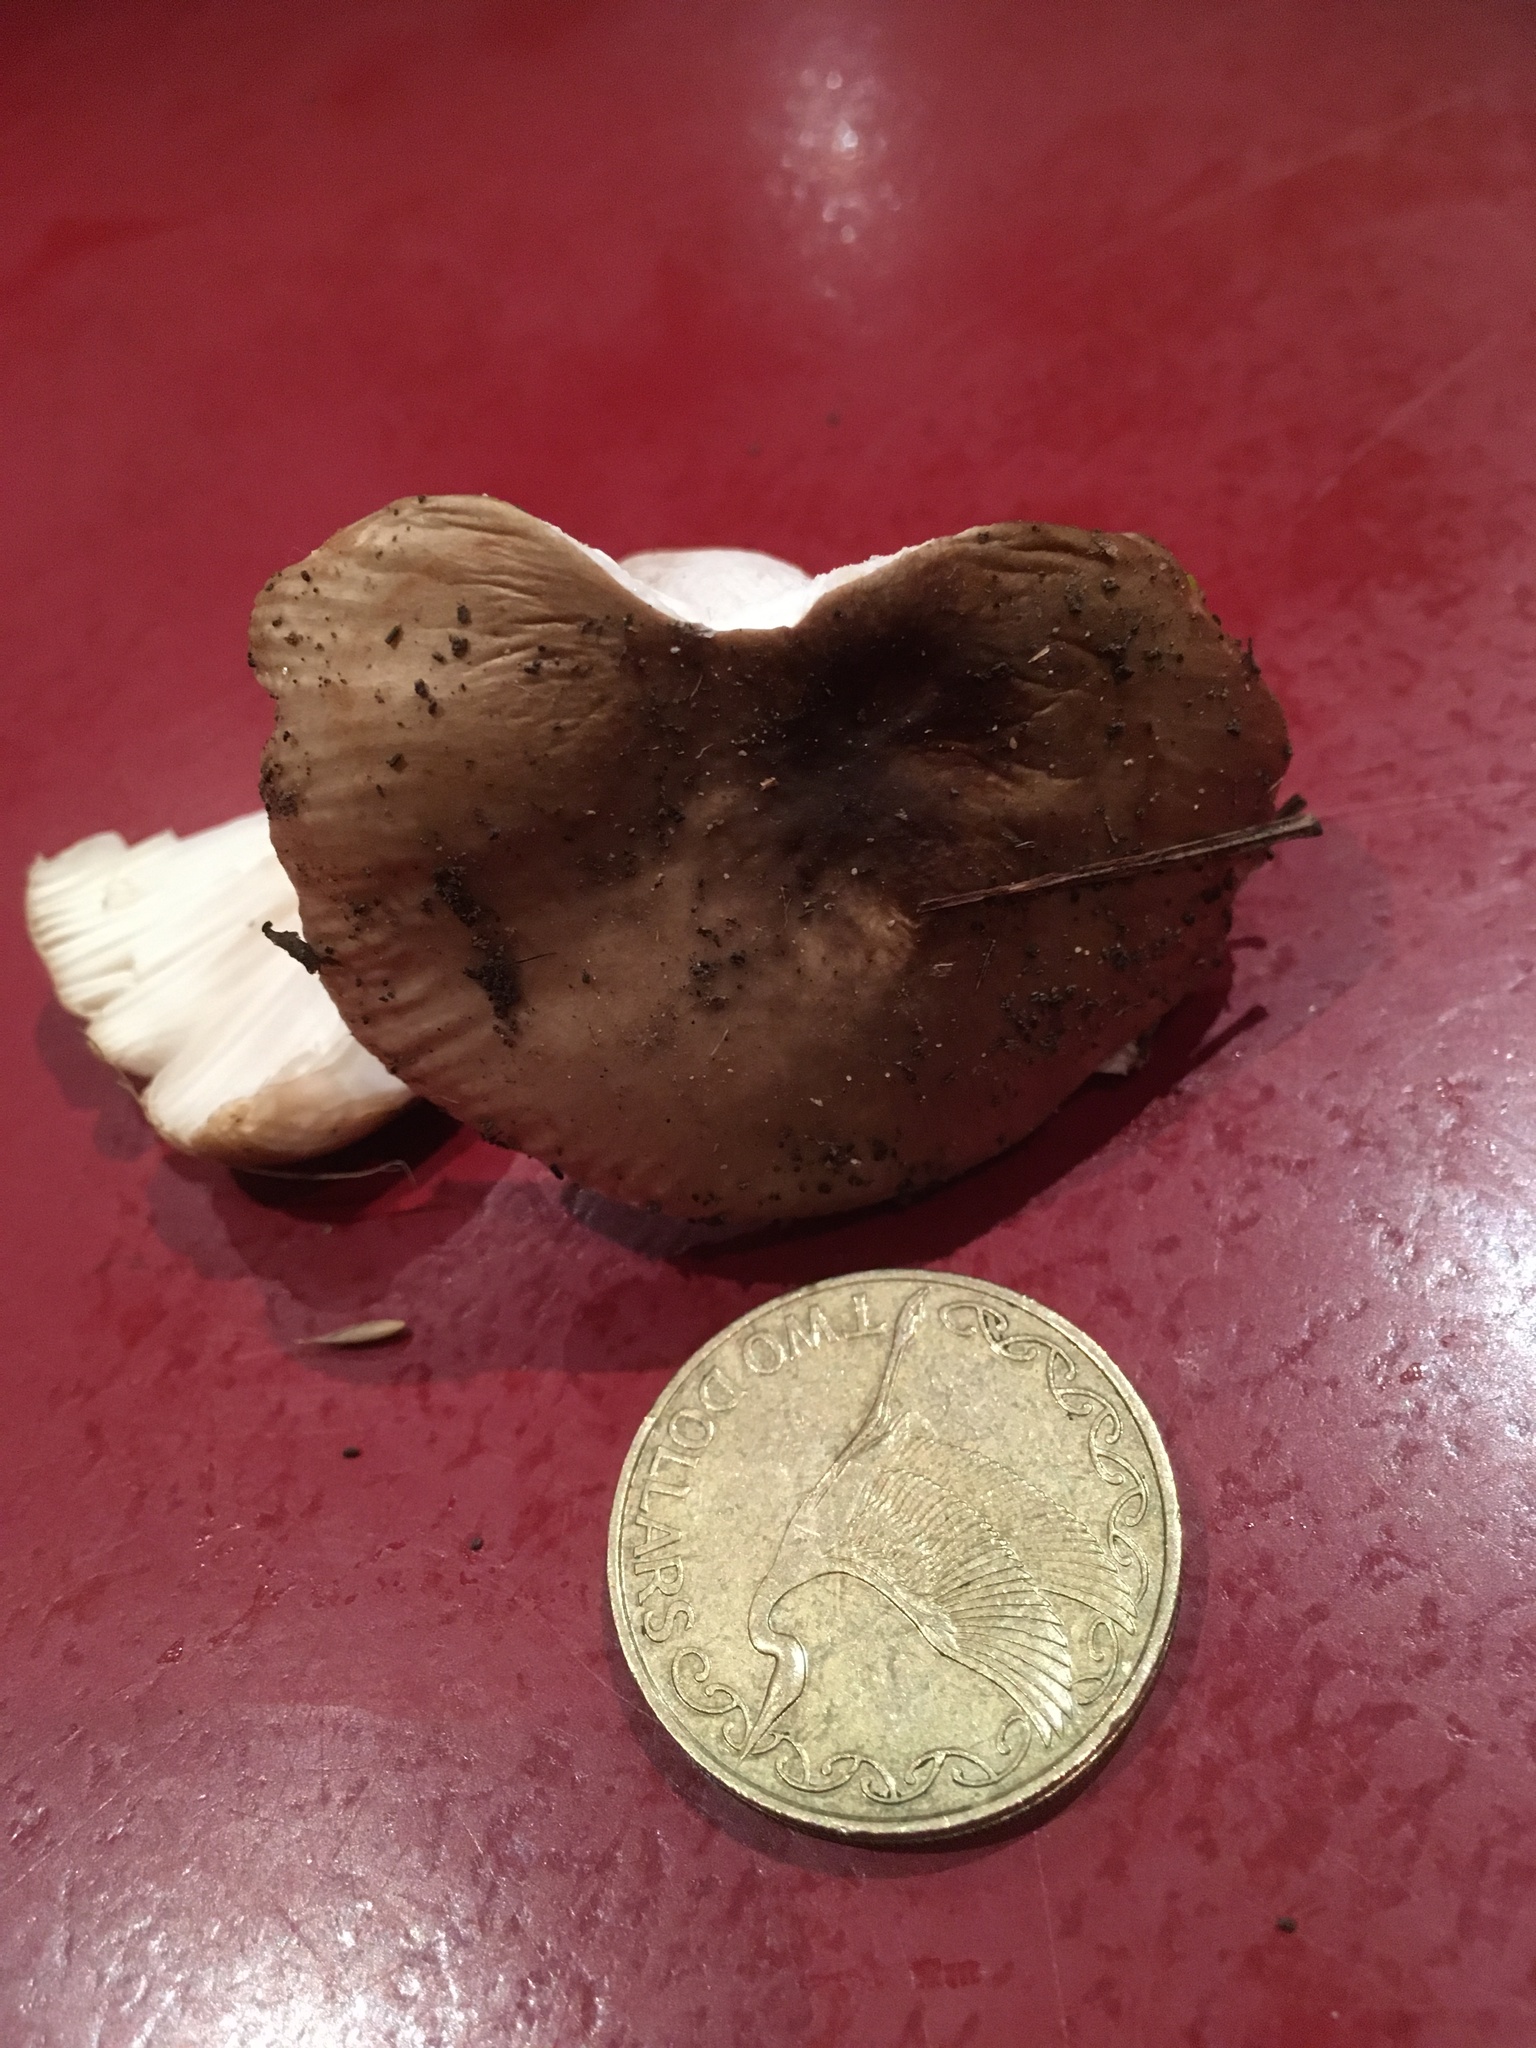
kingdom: Fungi
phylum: Basidiomycota
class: Agaricomycetes
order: Russulales
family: Russulaceae
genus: Russula
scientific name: Russula amoenolens
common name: Camembert brittlegill
